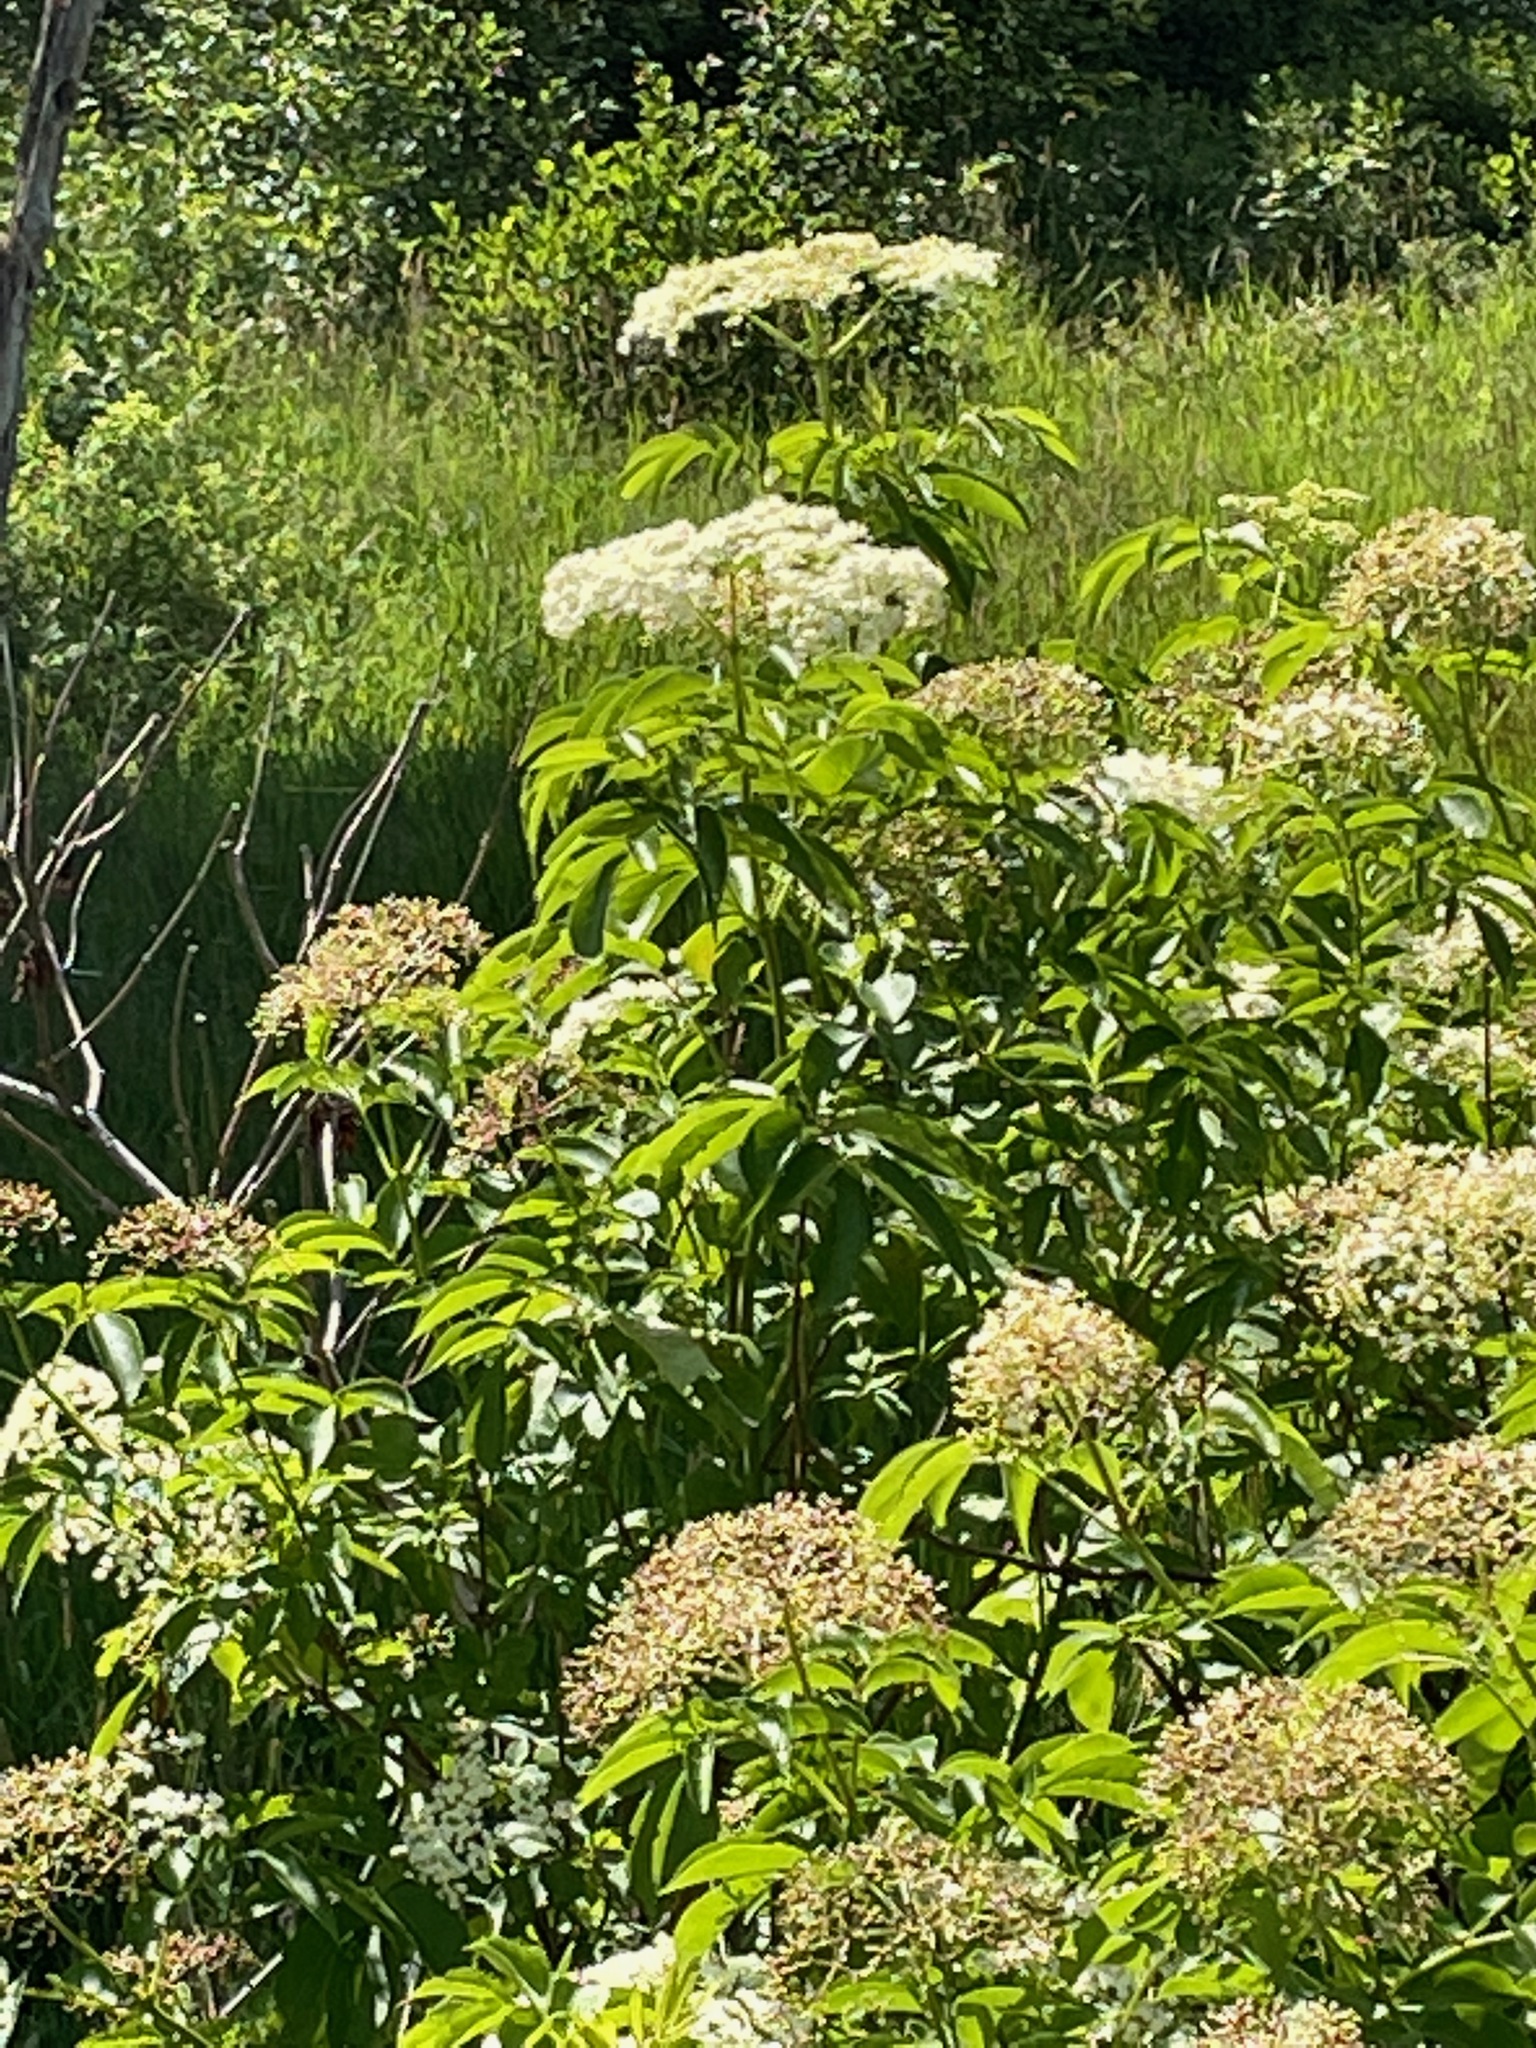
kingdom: Plantae
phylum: Tracheophyta
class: Magnoliopsida
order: Dipsacales
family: Viburnaceae
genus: Sambucus
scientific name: Sambucus canadensis
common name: American elder
